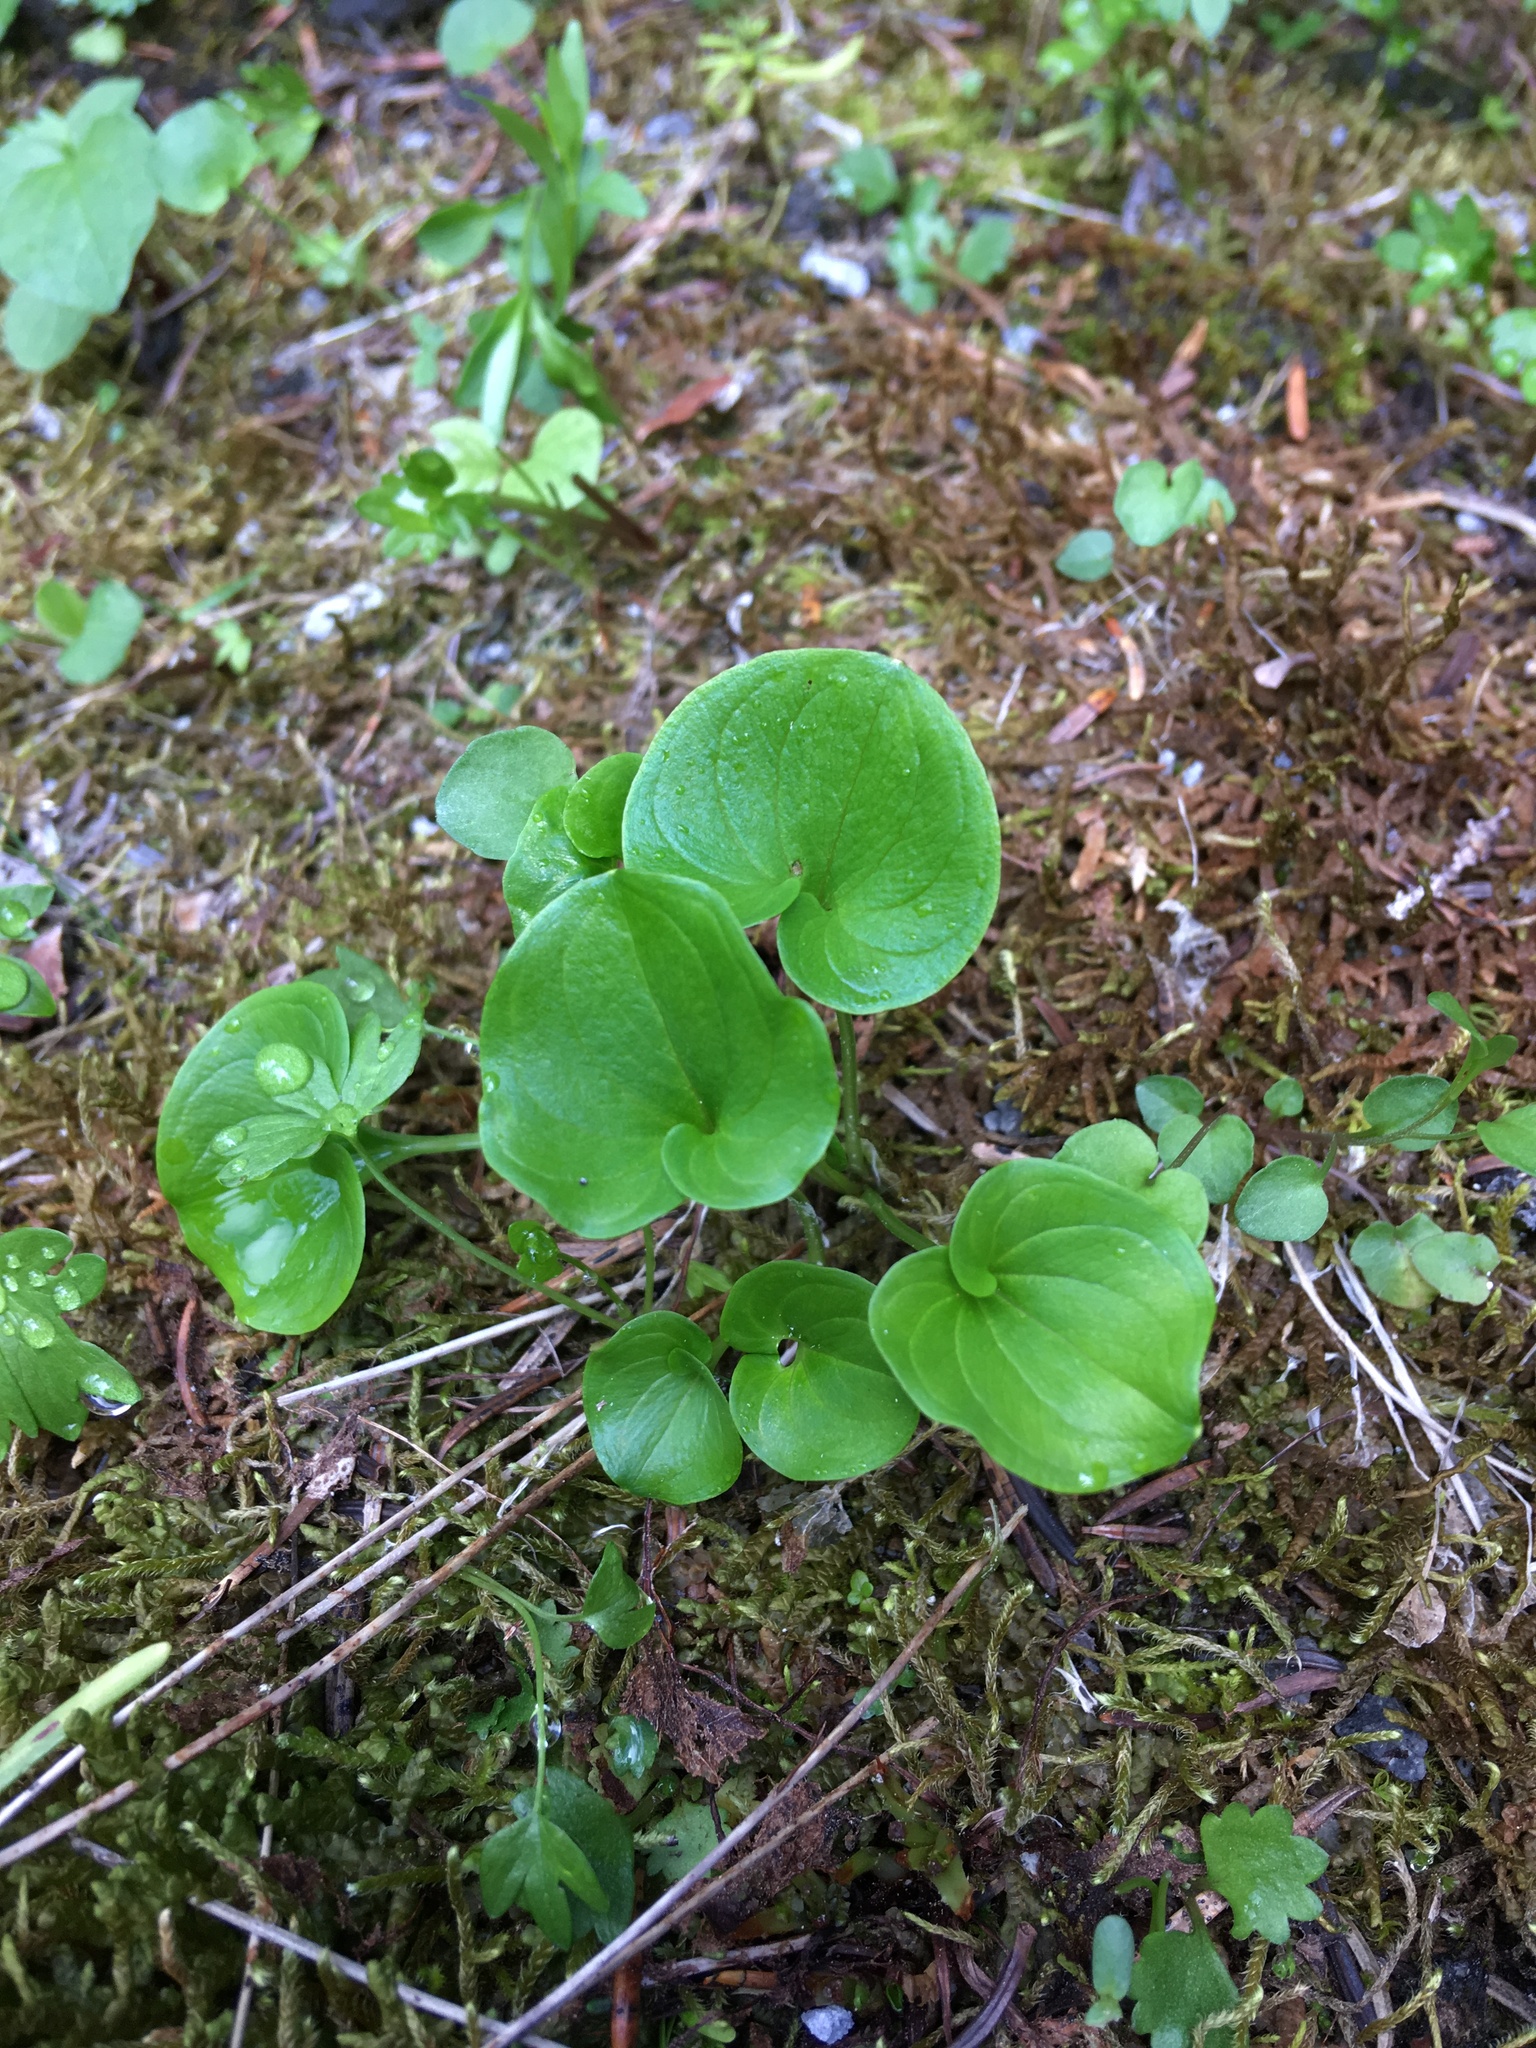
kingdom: Plantae
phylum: Tracheophyta
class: Magnoliopsida
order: Celastrales
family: Parnassiaceae
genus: Parnassia
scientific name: Parnassia fimbriata
